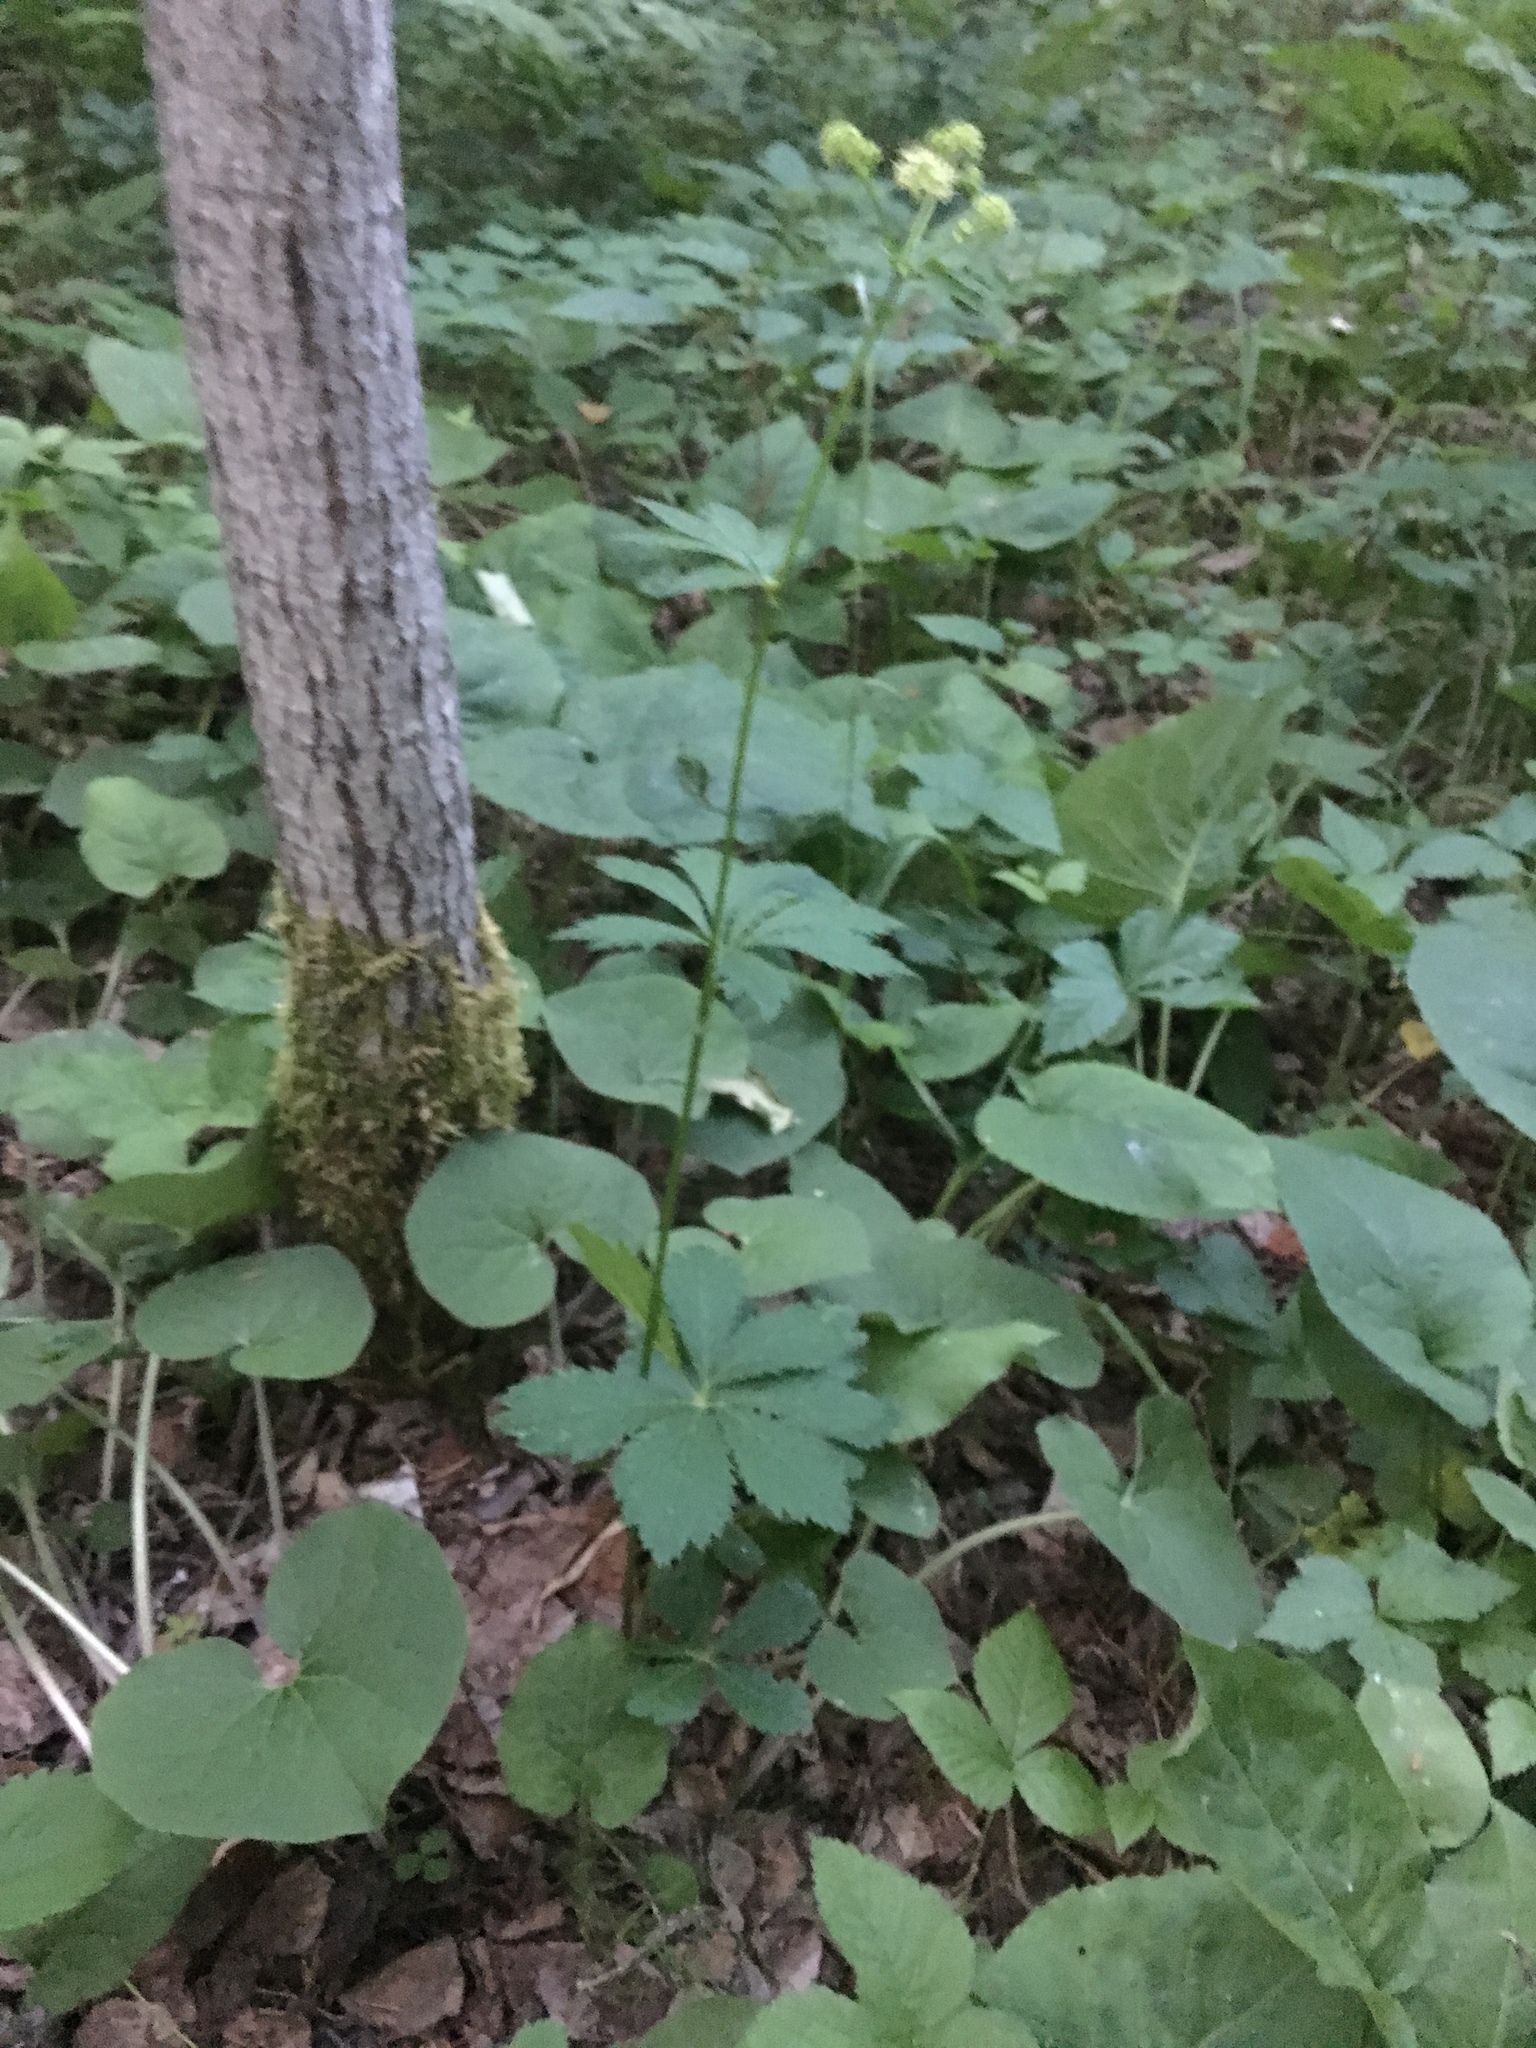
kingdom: Plantae
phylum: Tracheophyta
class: Magnoliopsida
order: Apiales
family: Apiaceae
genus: Sanicula
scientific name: Sanicula marilandica
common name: Black snakeroot
